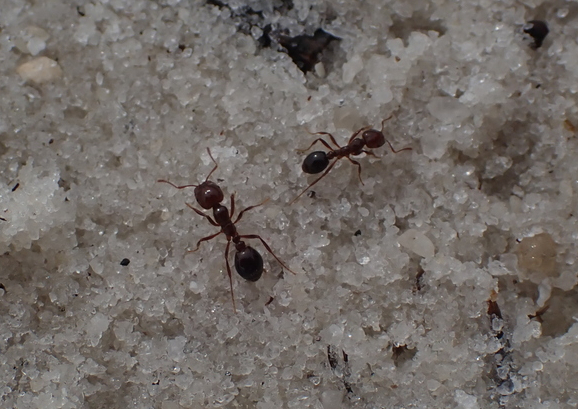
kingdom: Animalia
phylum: Arthropoda
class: Insecta
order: Hymenoptera
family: Formicidae
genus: Solenopsis
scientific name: Solenopsis invicta
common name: Red imported fire ant
